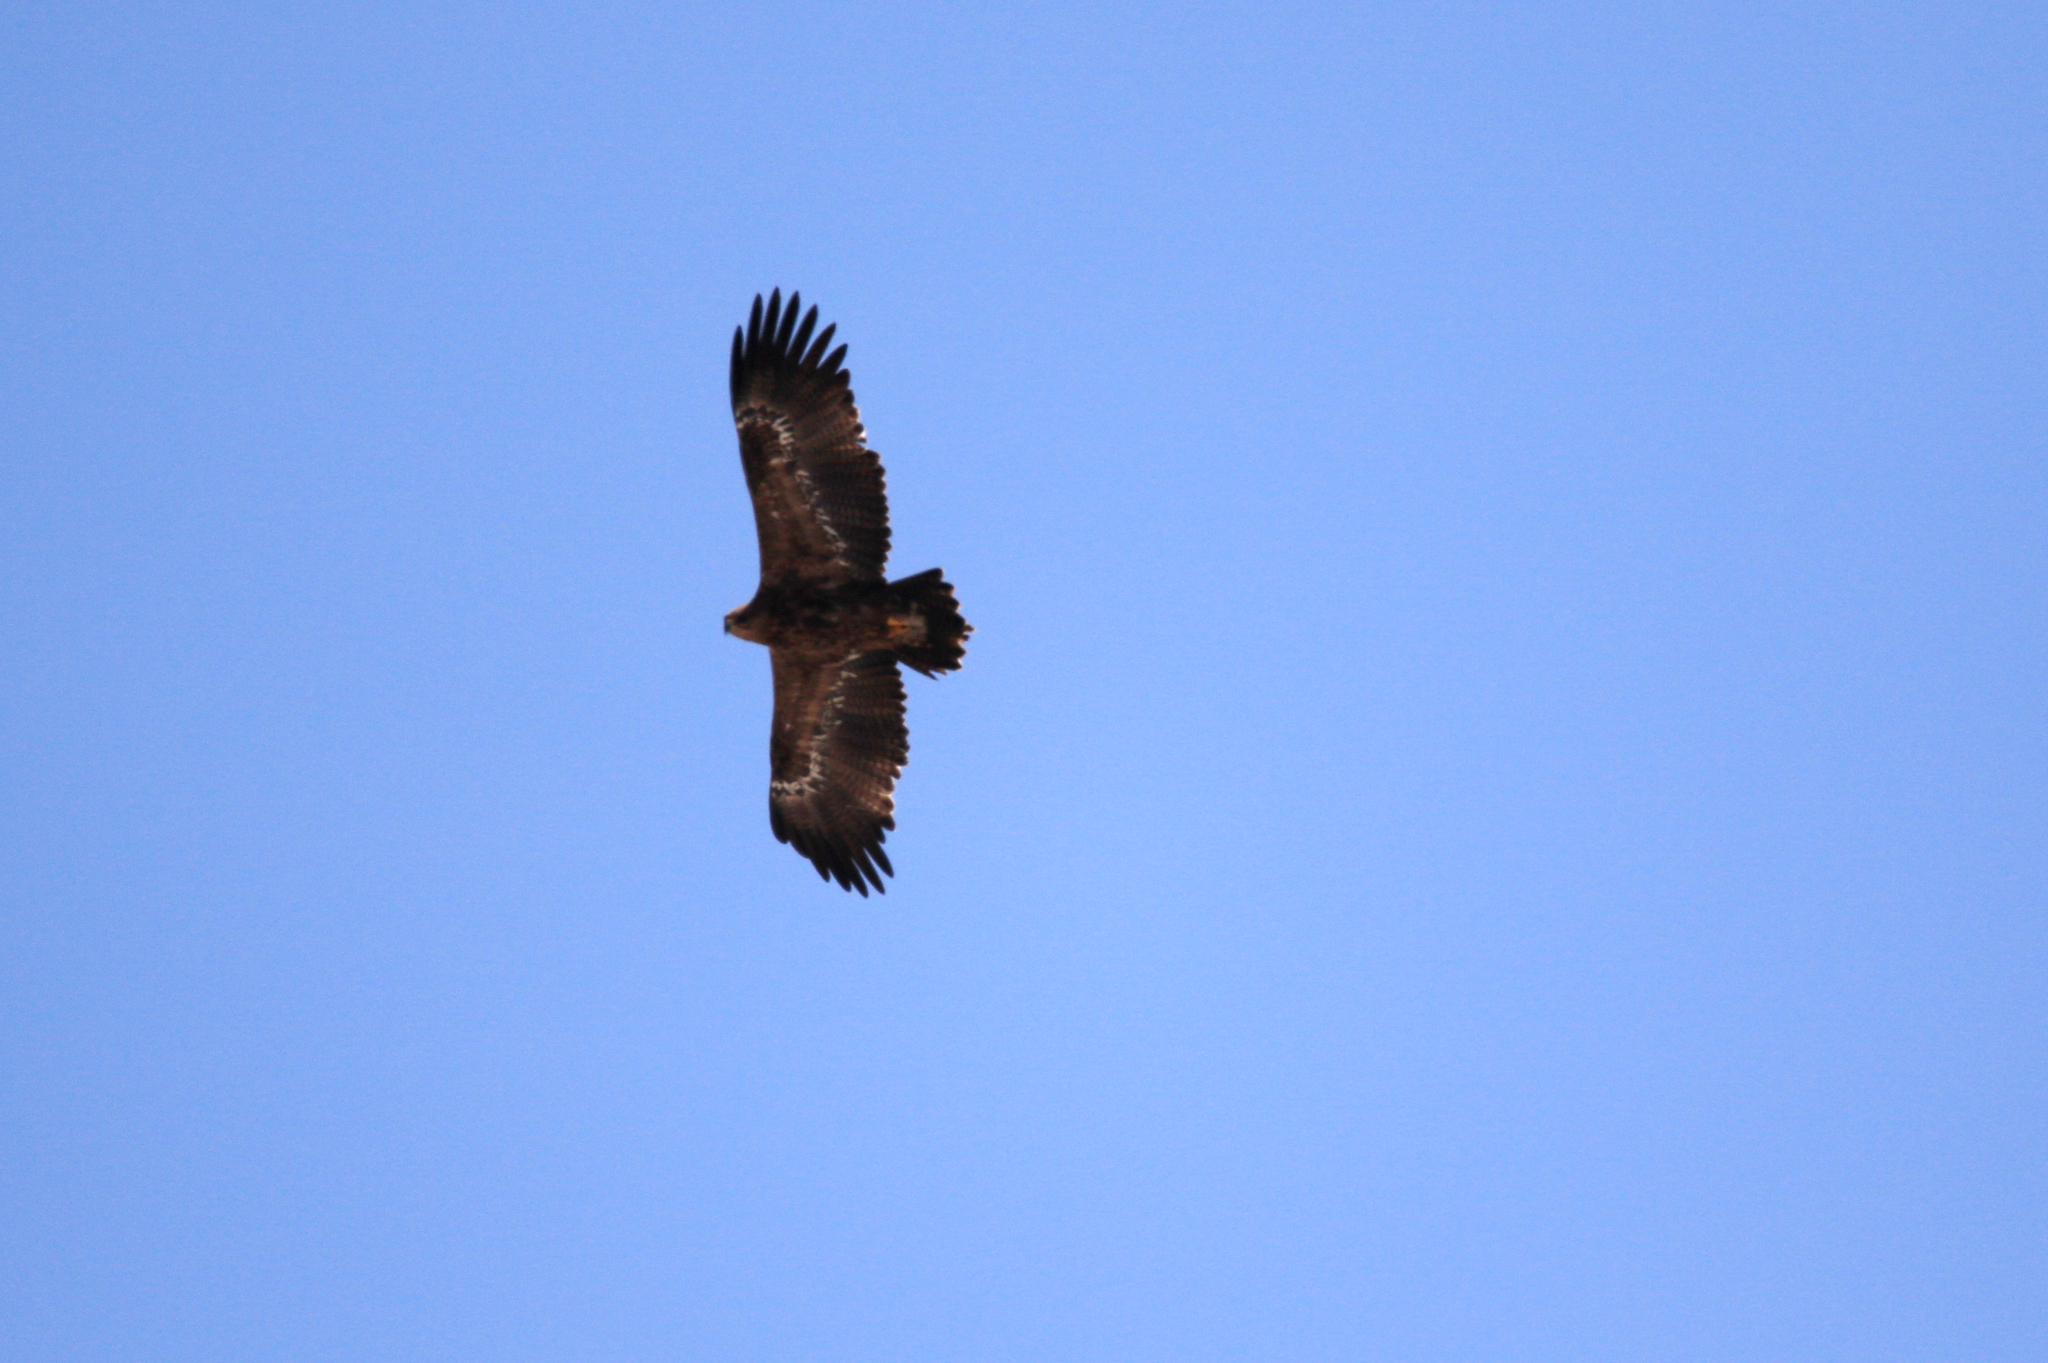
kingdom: Animalia
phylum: Chordata
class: Aves
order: Accipitriformes
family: Accipitridae
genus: Aquila
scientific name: Aquila nipalensis
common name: Steppe eagle
